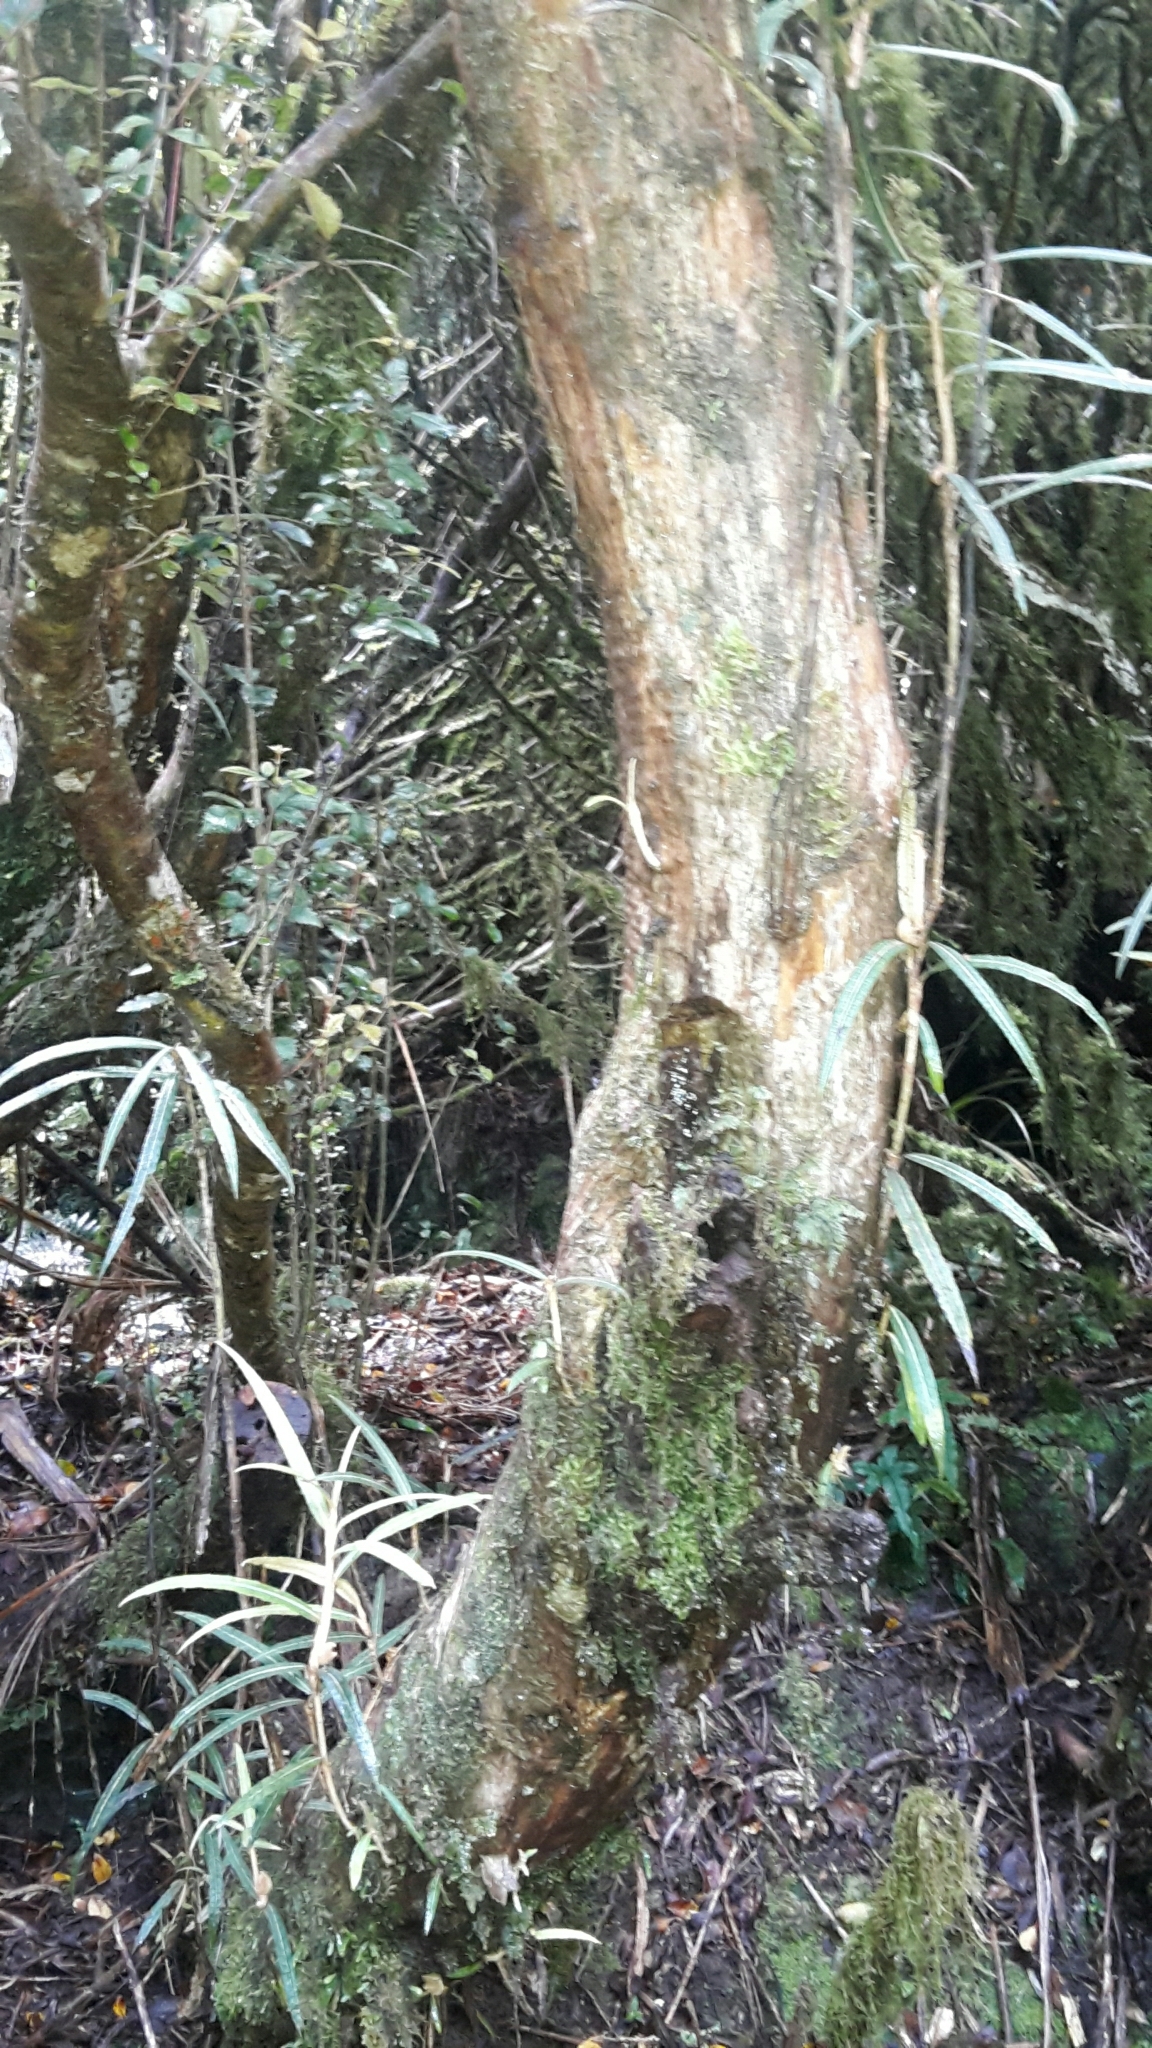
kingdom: Plantae
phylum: Tracheophyta
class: Magnoliopsida
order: Asterales
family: Asteraceae
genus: Olearia
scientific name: Olearia lacunosa
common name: Lancewood tree daisy
